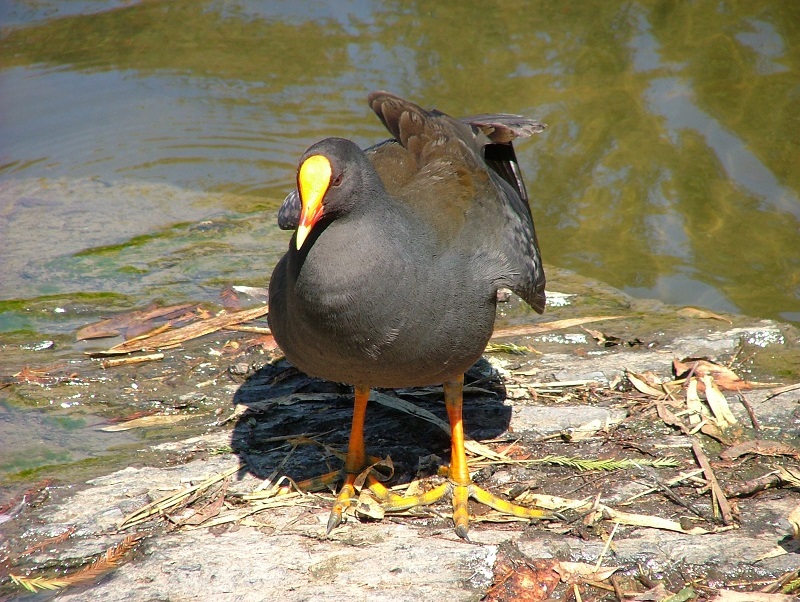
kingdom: Animalia
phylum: Chordata
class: Aves
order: Gruiformes
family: Rallidae
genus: Gallinula
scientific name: Gallinula tenebrosa
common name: Dusky moorhen
